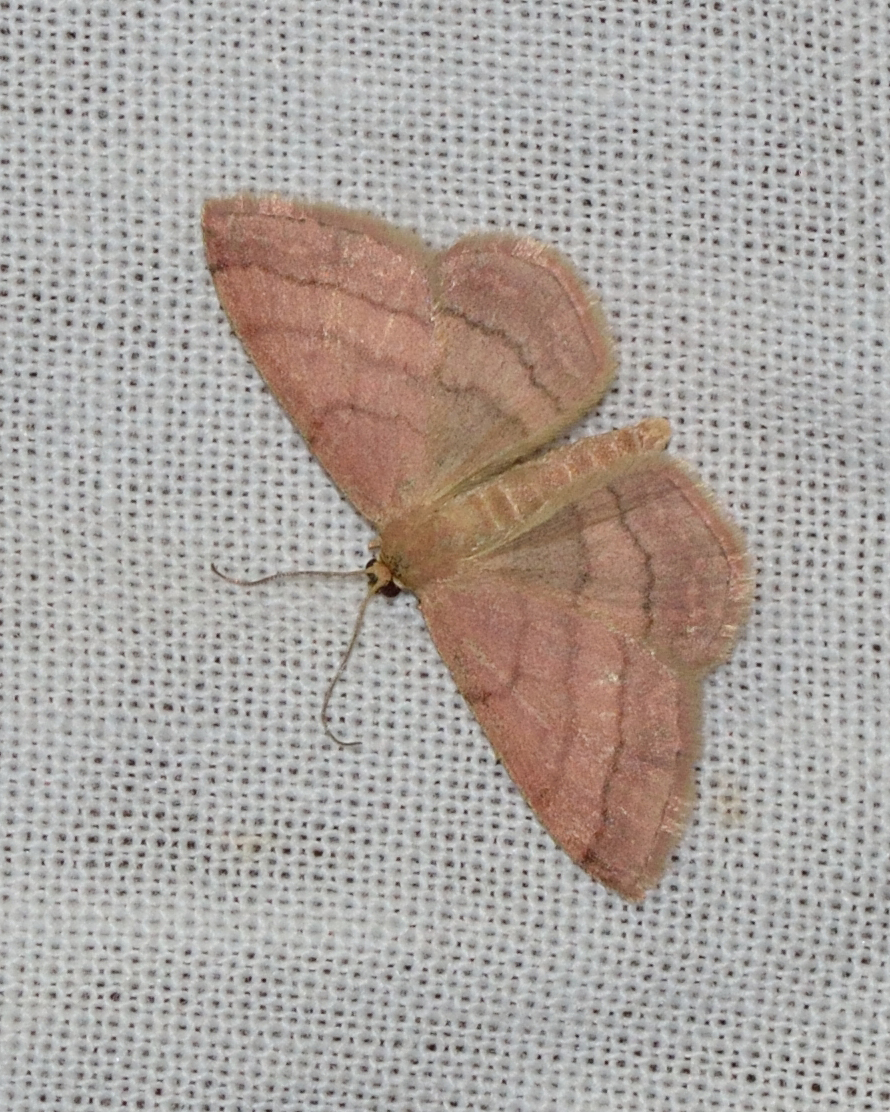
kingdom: Animalia
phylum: Arthropoda
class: Insecta
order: Lepidoptera
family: Geometridae
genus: Scopula
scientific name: Scopula rubiginata
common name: Tawny wave
